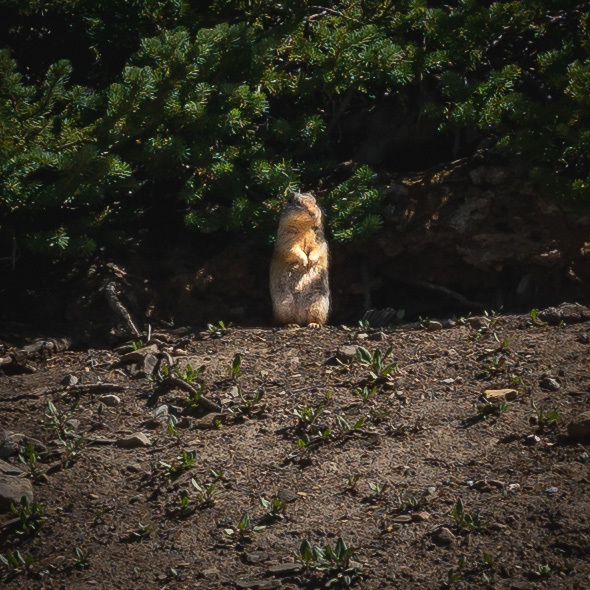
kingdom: Animalia
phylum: Chordata
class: Mammalia
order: Rodentia
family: Sciuridae
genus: Urocitellus
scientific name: Urocitellus columbianus
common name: Columbian ground squirrel
